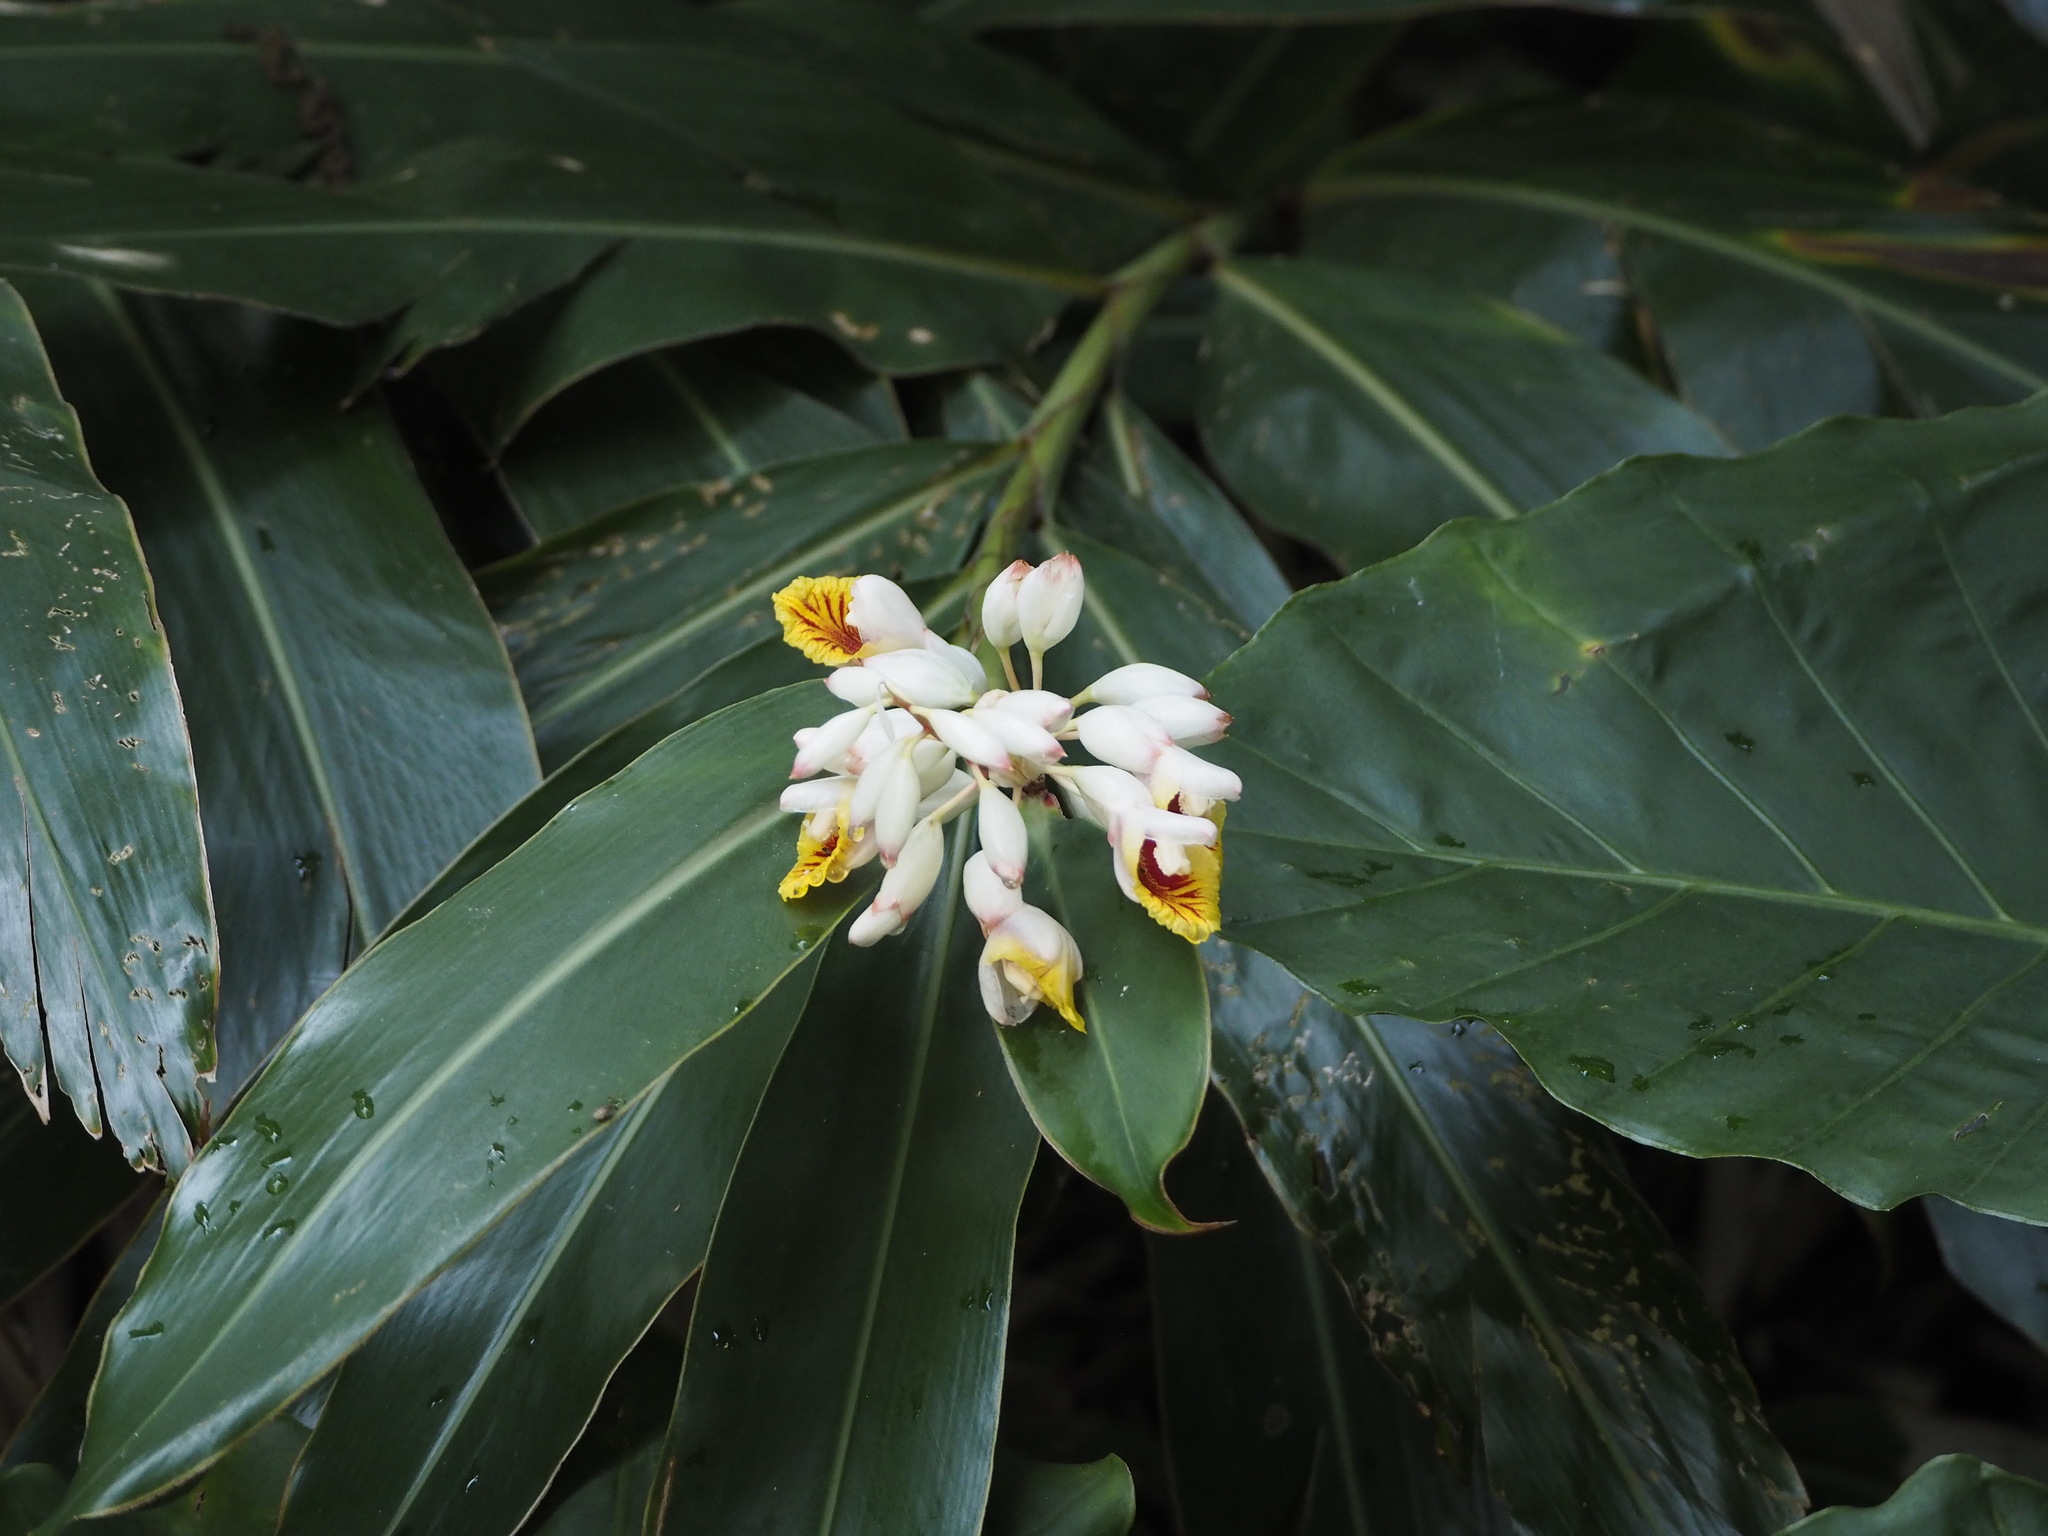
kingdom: Plantae
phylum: Tracheophyta
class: Liliopsida
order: Zingiberales
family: Zingiberaceae
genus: Alpinia
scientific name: Alpinia zerumbet
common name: Shellplant
